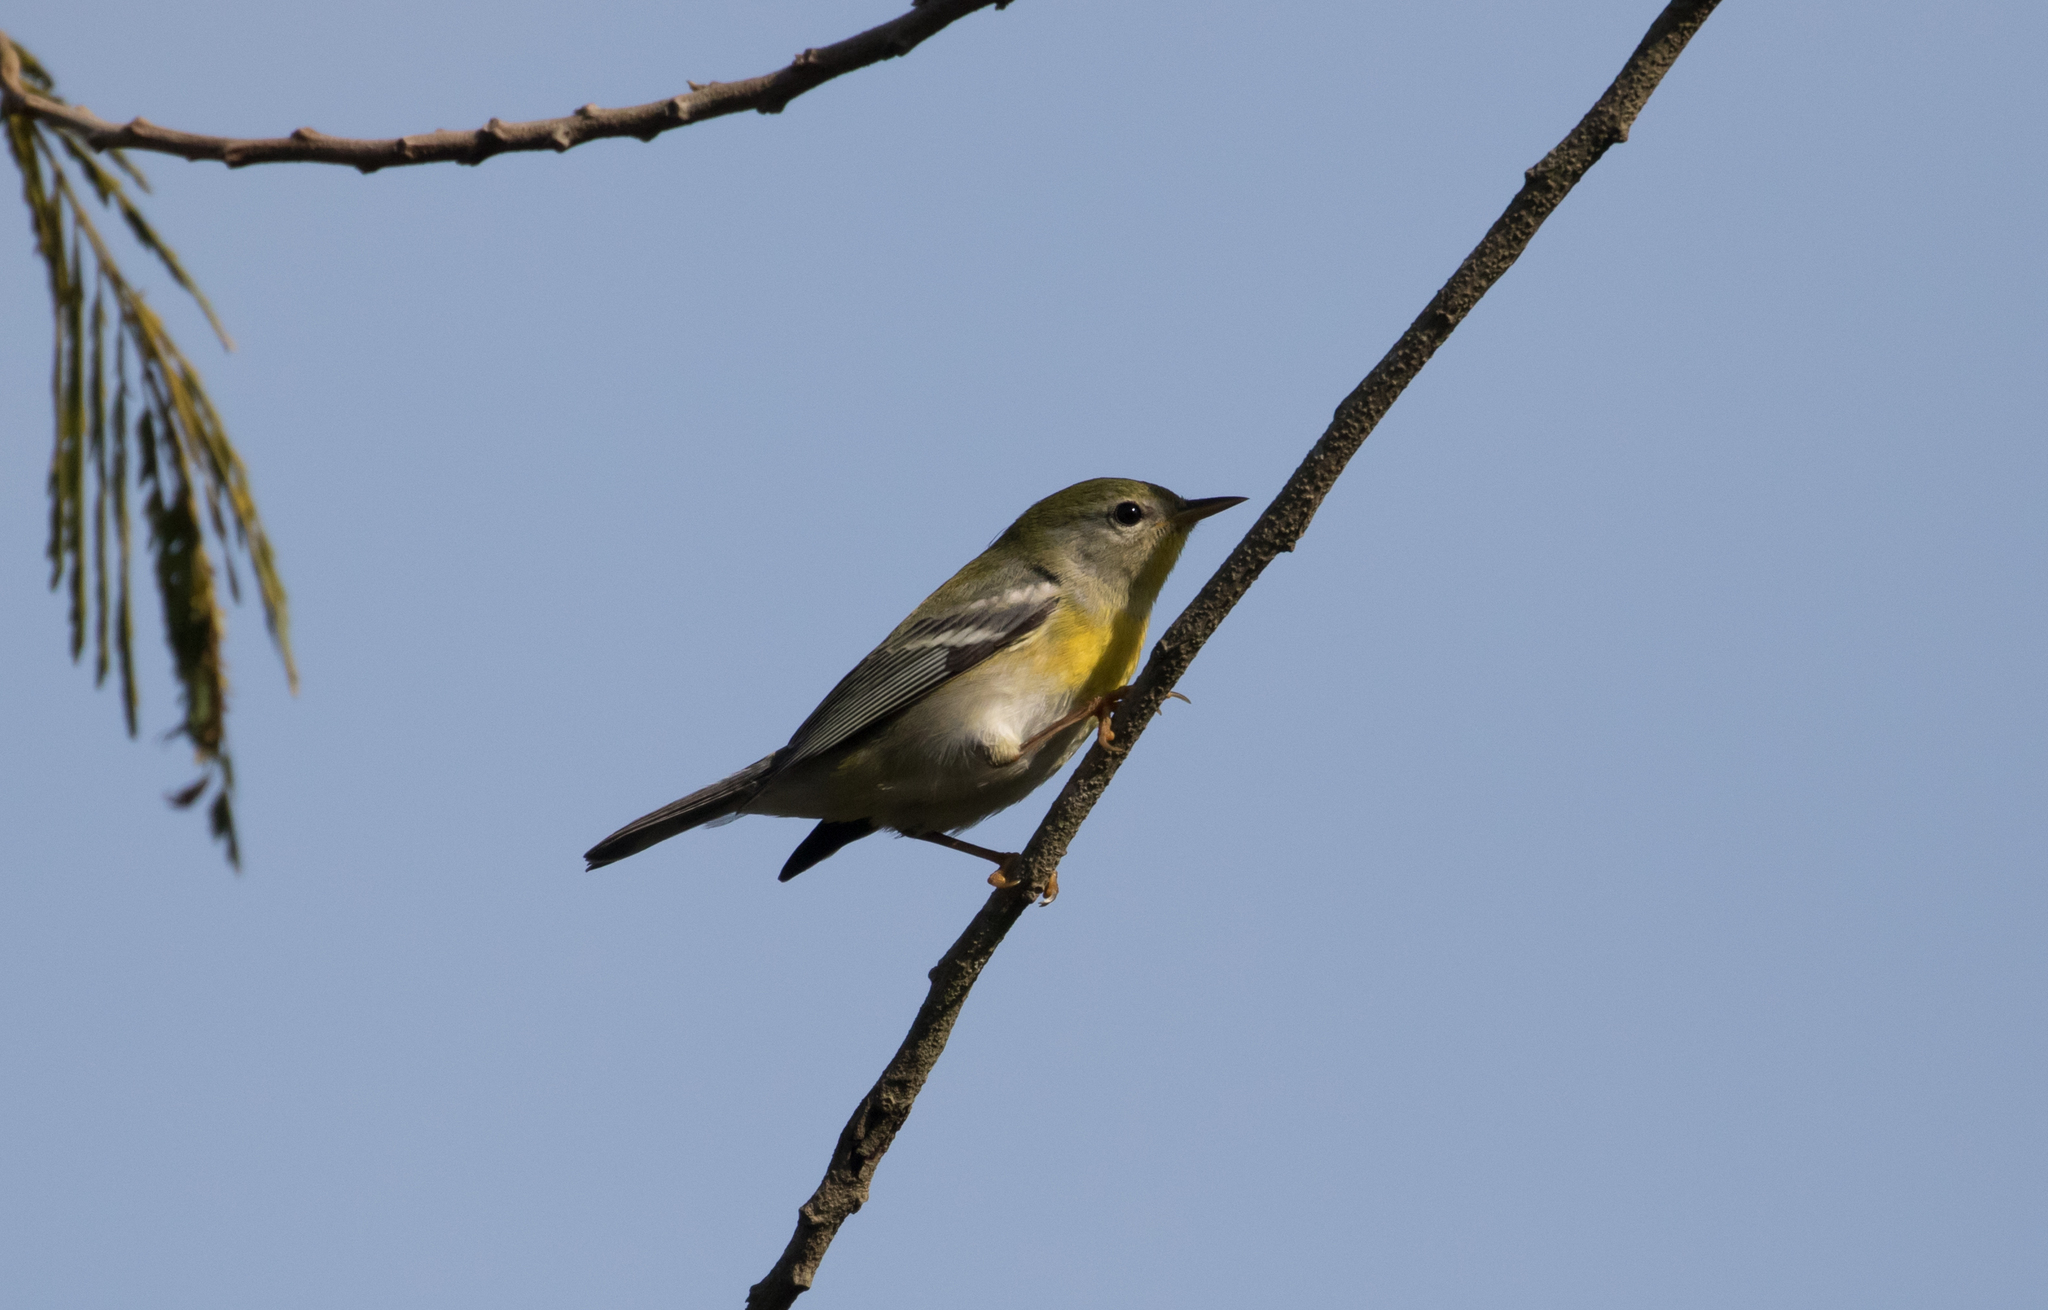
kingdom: Animalia
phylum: Chordata
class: Aves
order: Passeriformes
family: Parulidae
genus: Setophaga
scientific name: Setophaga americana
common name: Northern parula
